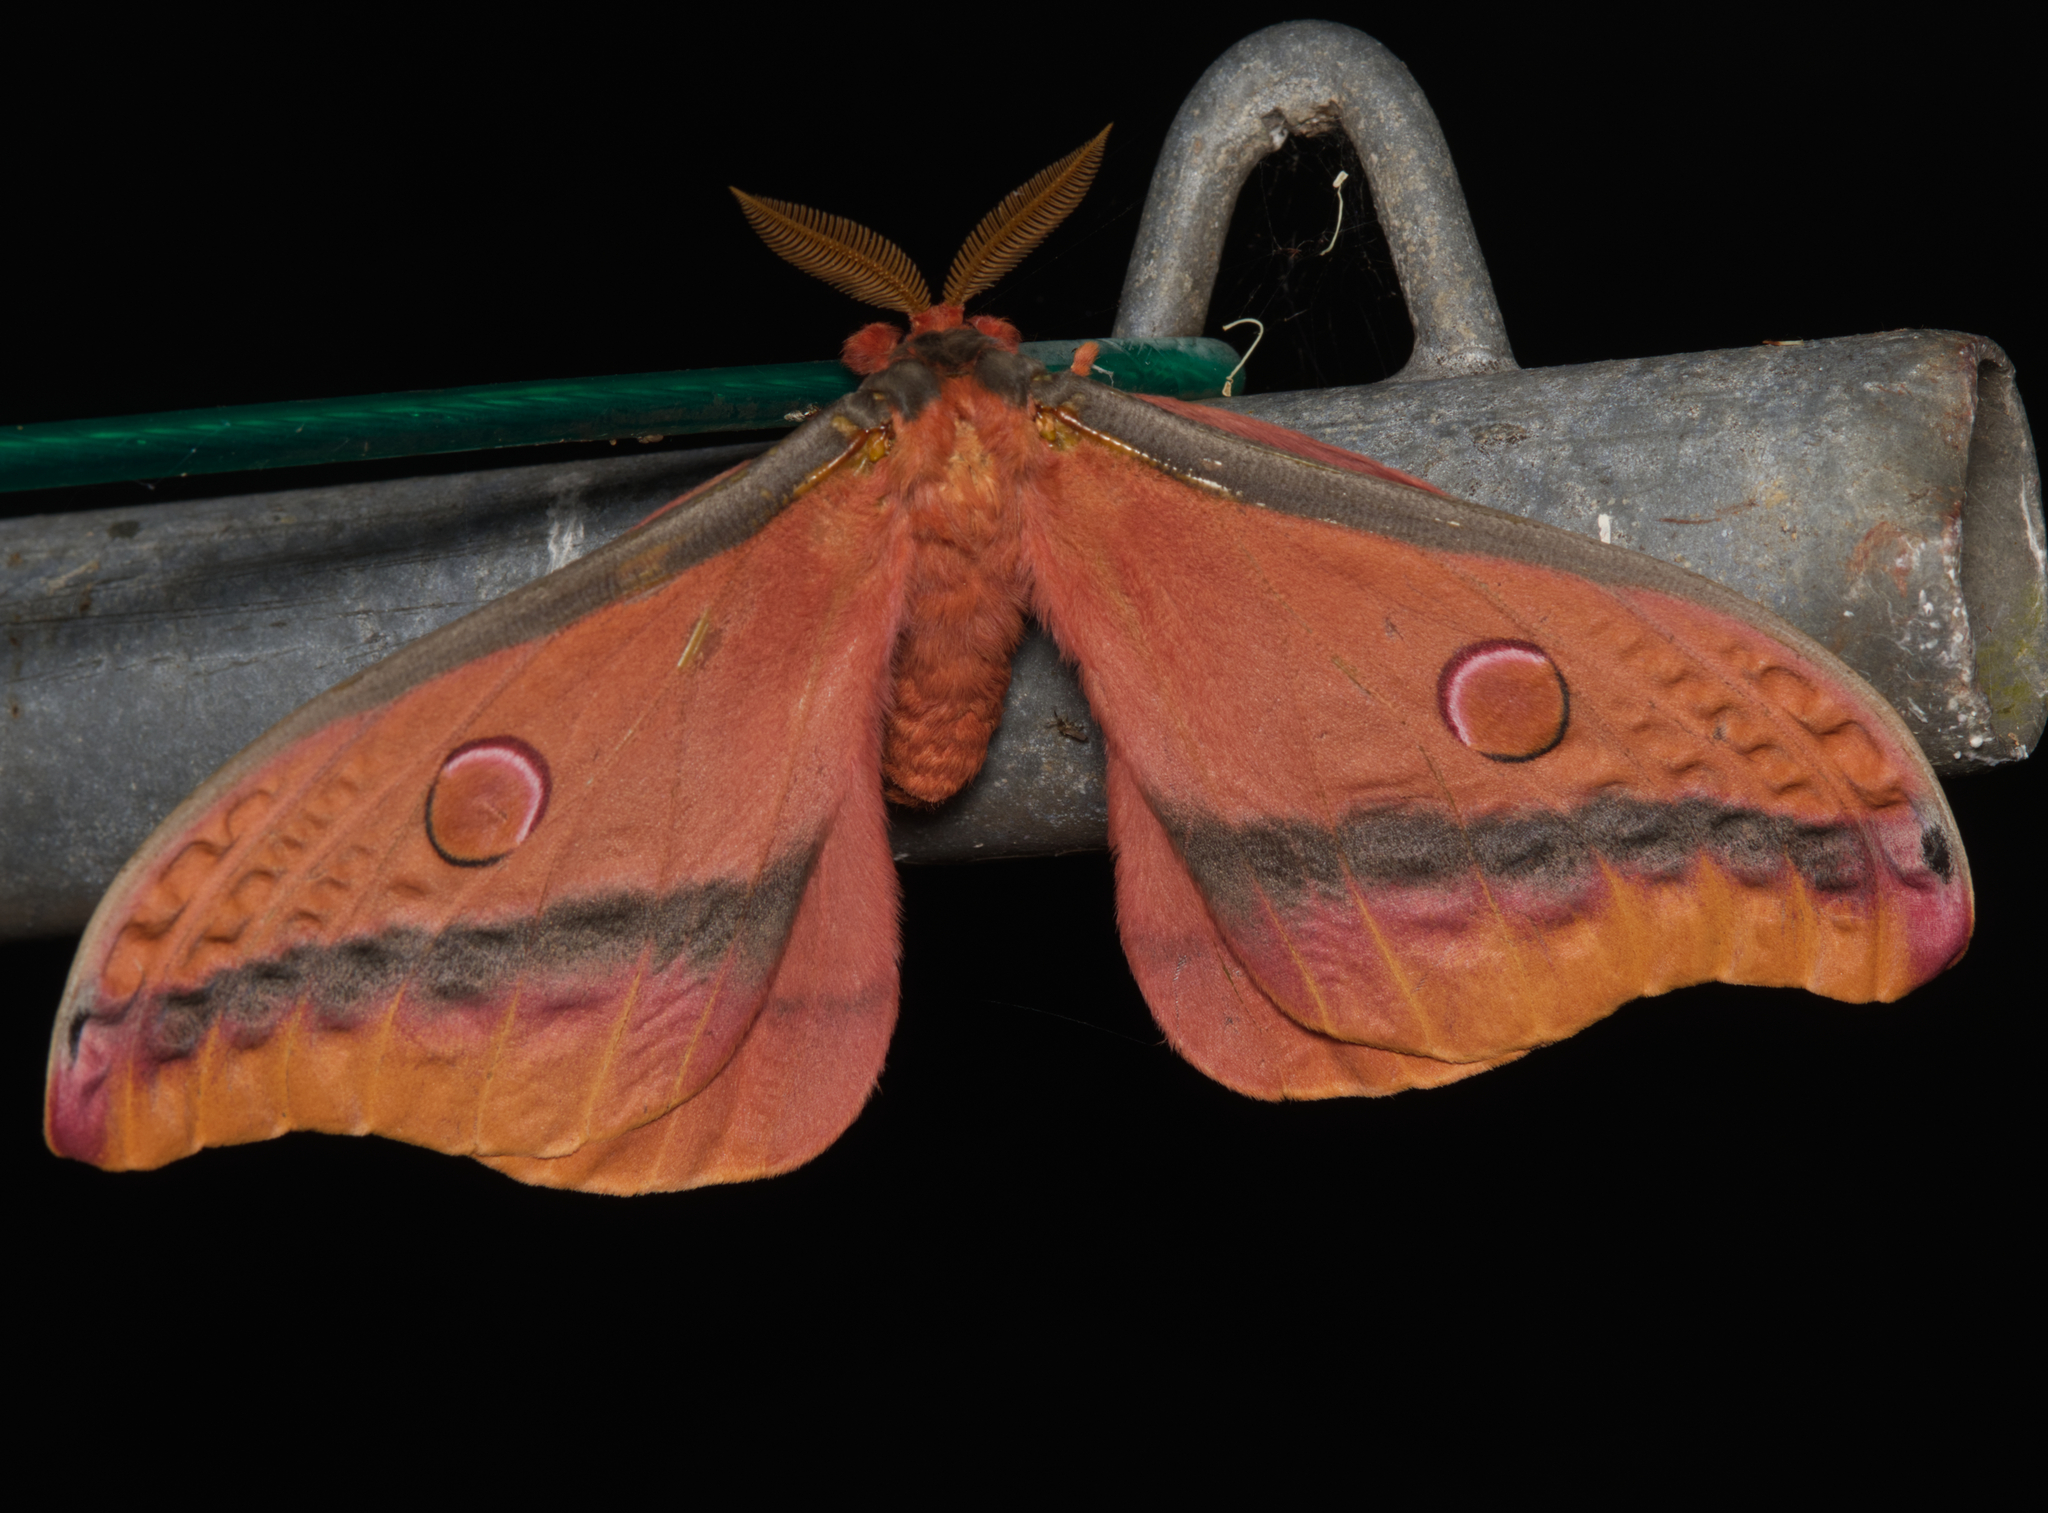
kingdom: Animalia
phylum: Arthropoda
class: Insecta
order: Lepidoptera
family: Saturniidae
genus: Opodiphthera
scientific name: Opodiphthera
